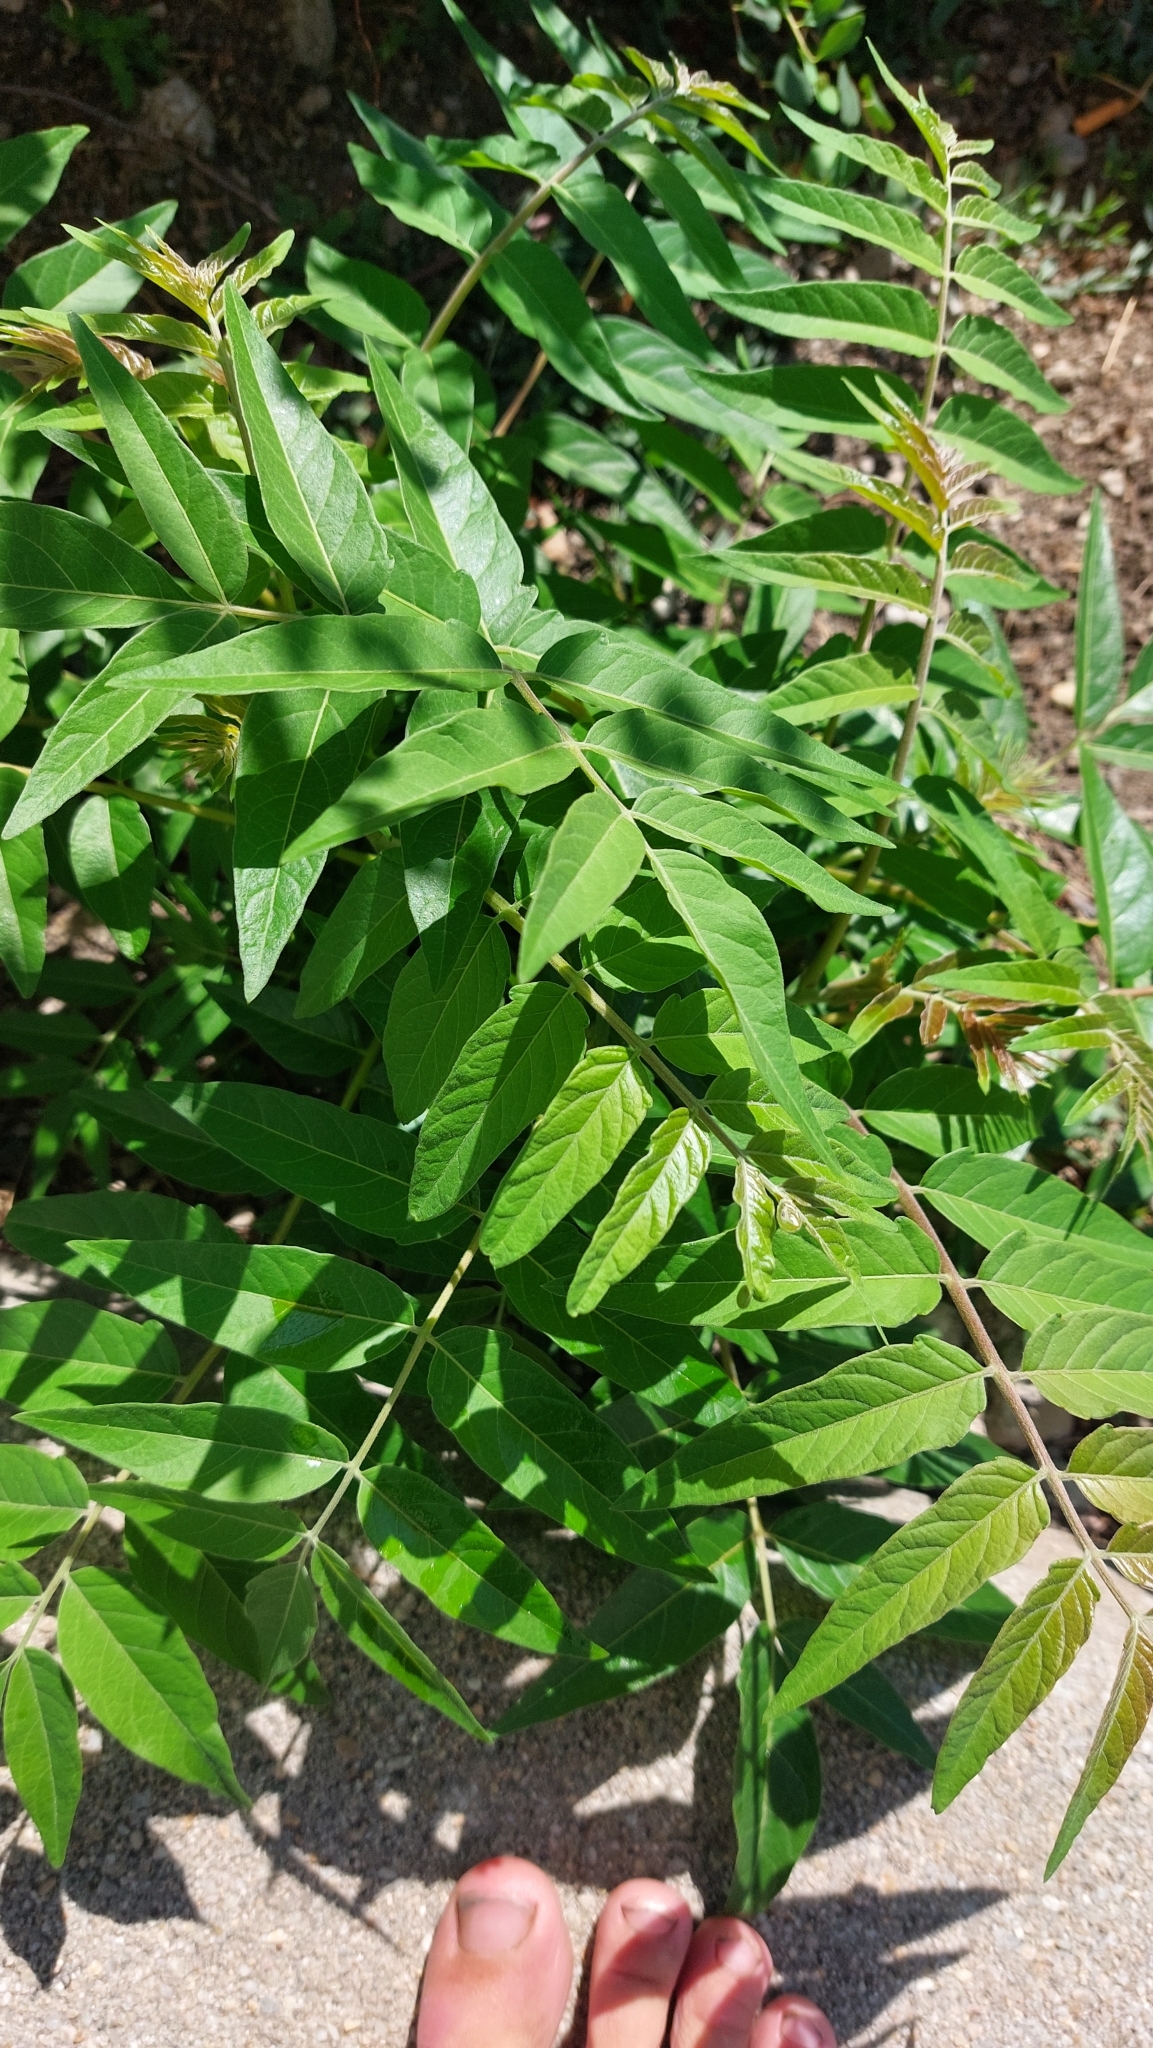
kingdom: Plantae
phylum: Tracheophyta
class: Magnoliopsida
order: Sapindales
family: Simaroubaceae
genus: Ailanthus
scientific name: Ailanthus altissima
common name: Tree-of-heaven
